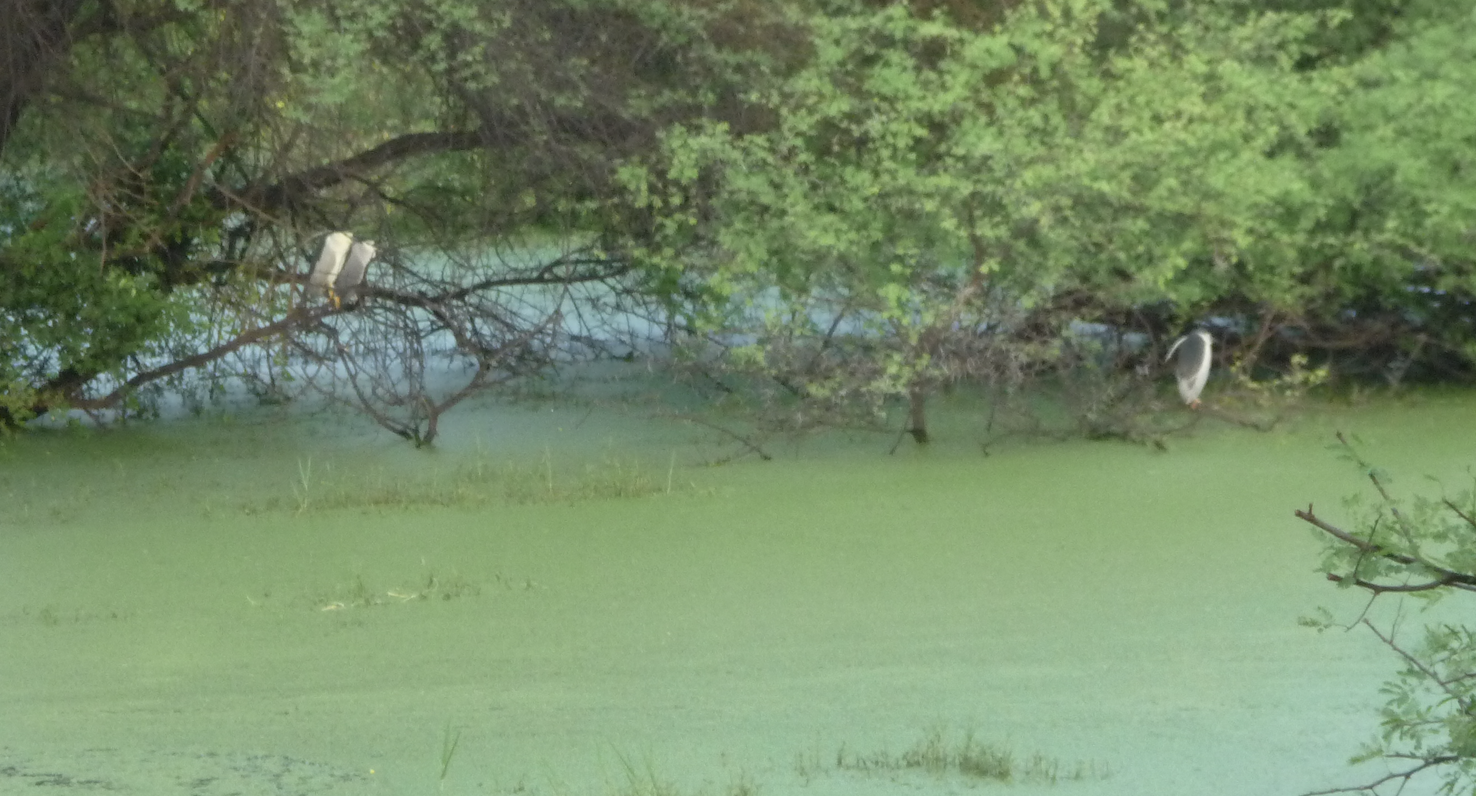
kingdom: Animalia
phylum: Chordata
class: Aves
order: Pelecaniformes
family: Ardeidae
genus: Nycticorax
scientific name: Nycticorax nycticorax
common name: Black-crowned night heron
